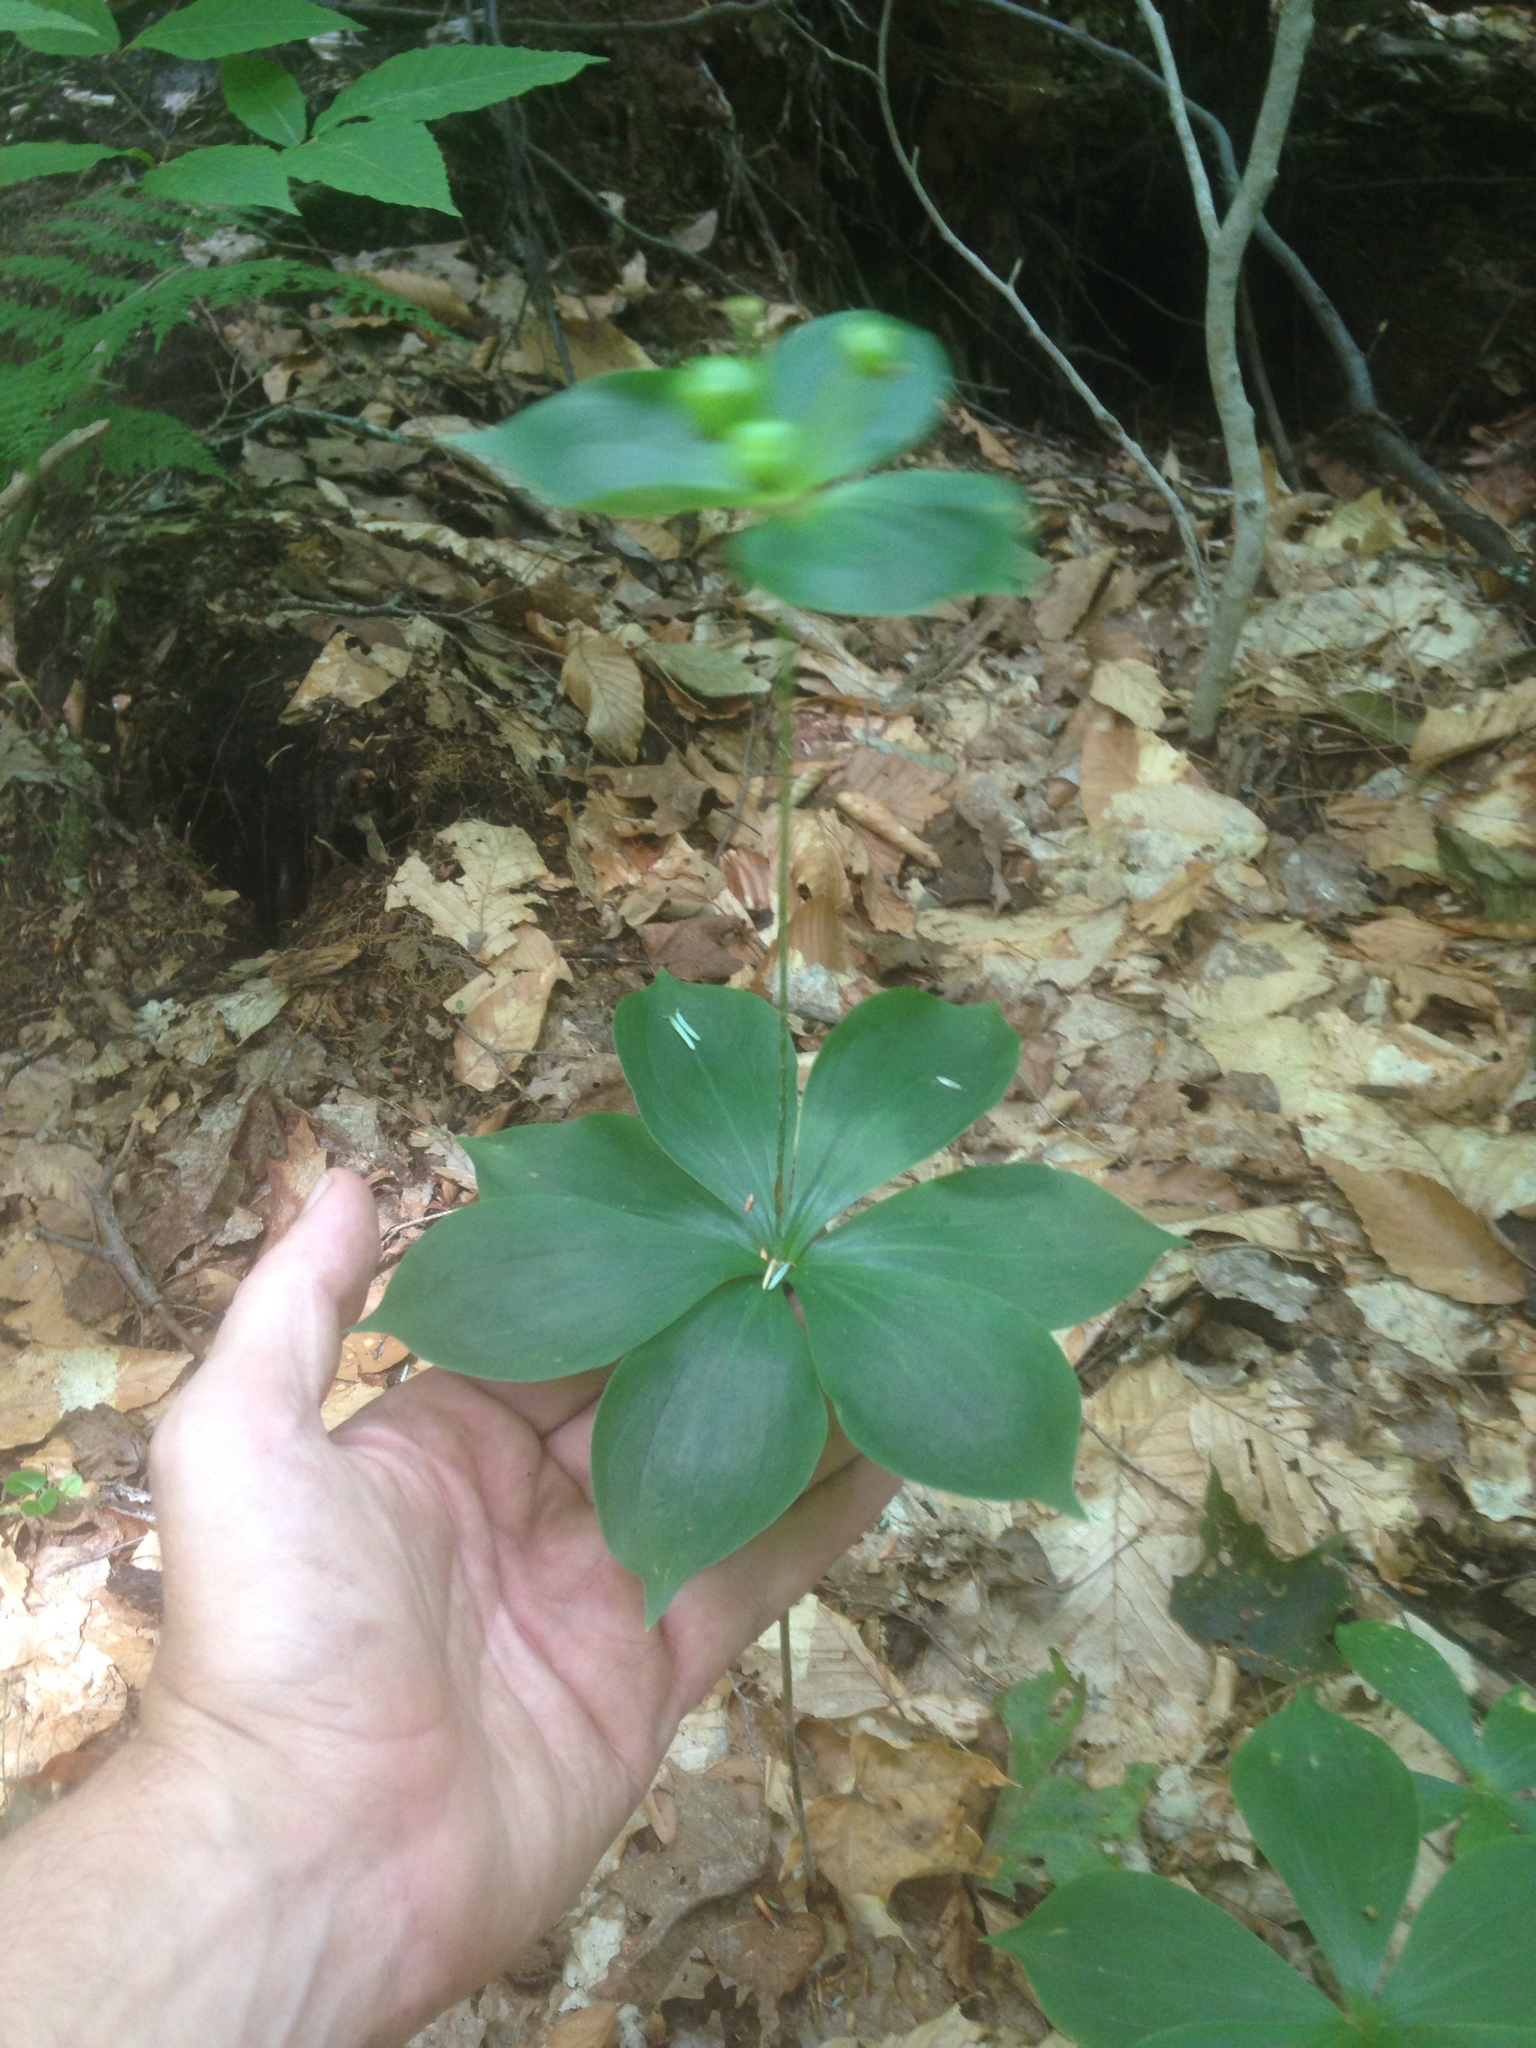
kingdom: Plantae
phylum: Tracheophyta
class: Liliopsida
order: Liliales
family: Liliaceae
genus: Medeola
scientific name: Medeola virginiana
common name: Indian cucumber-root
